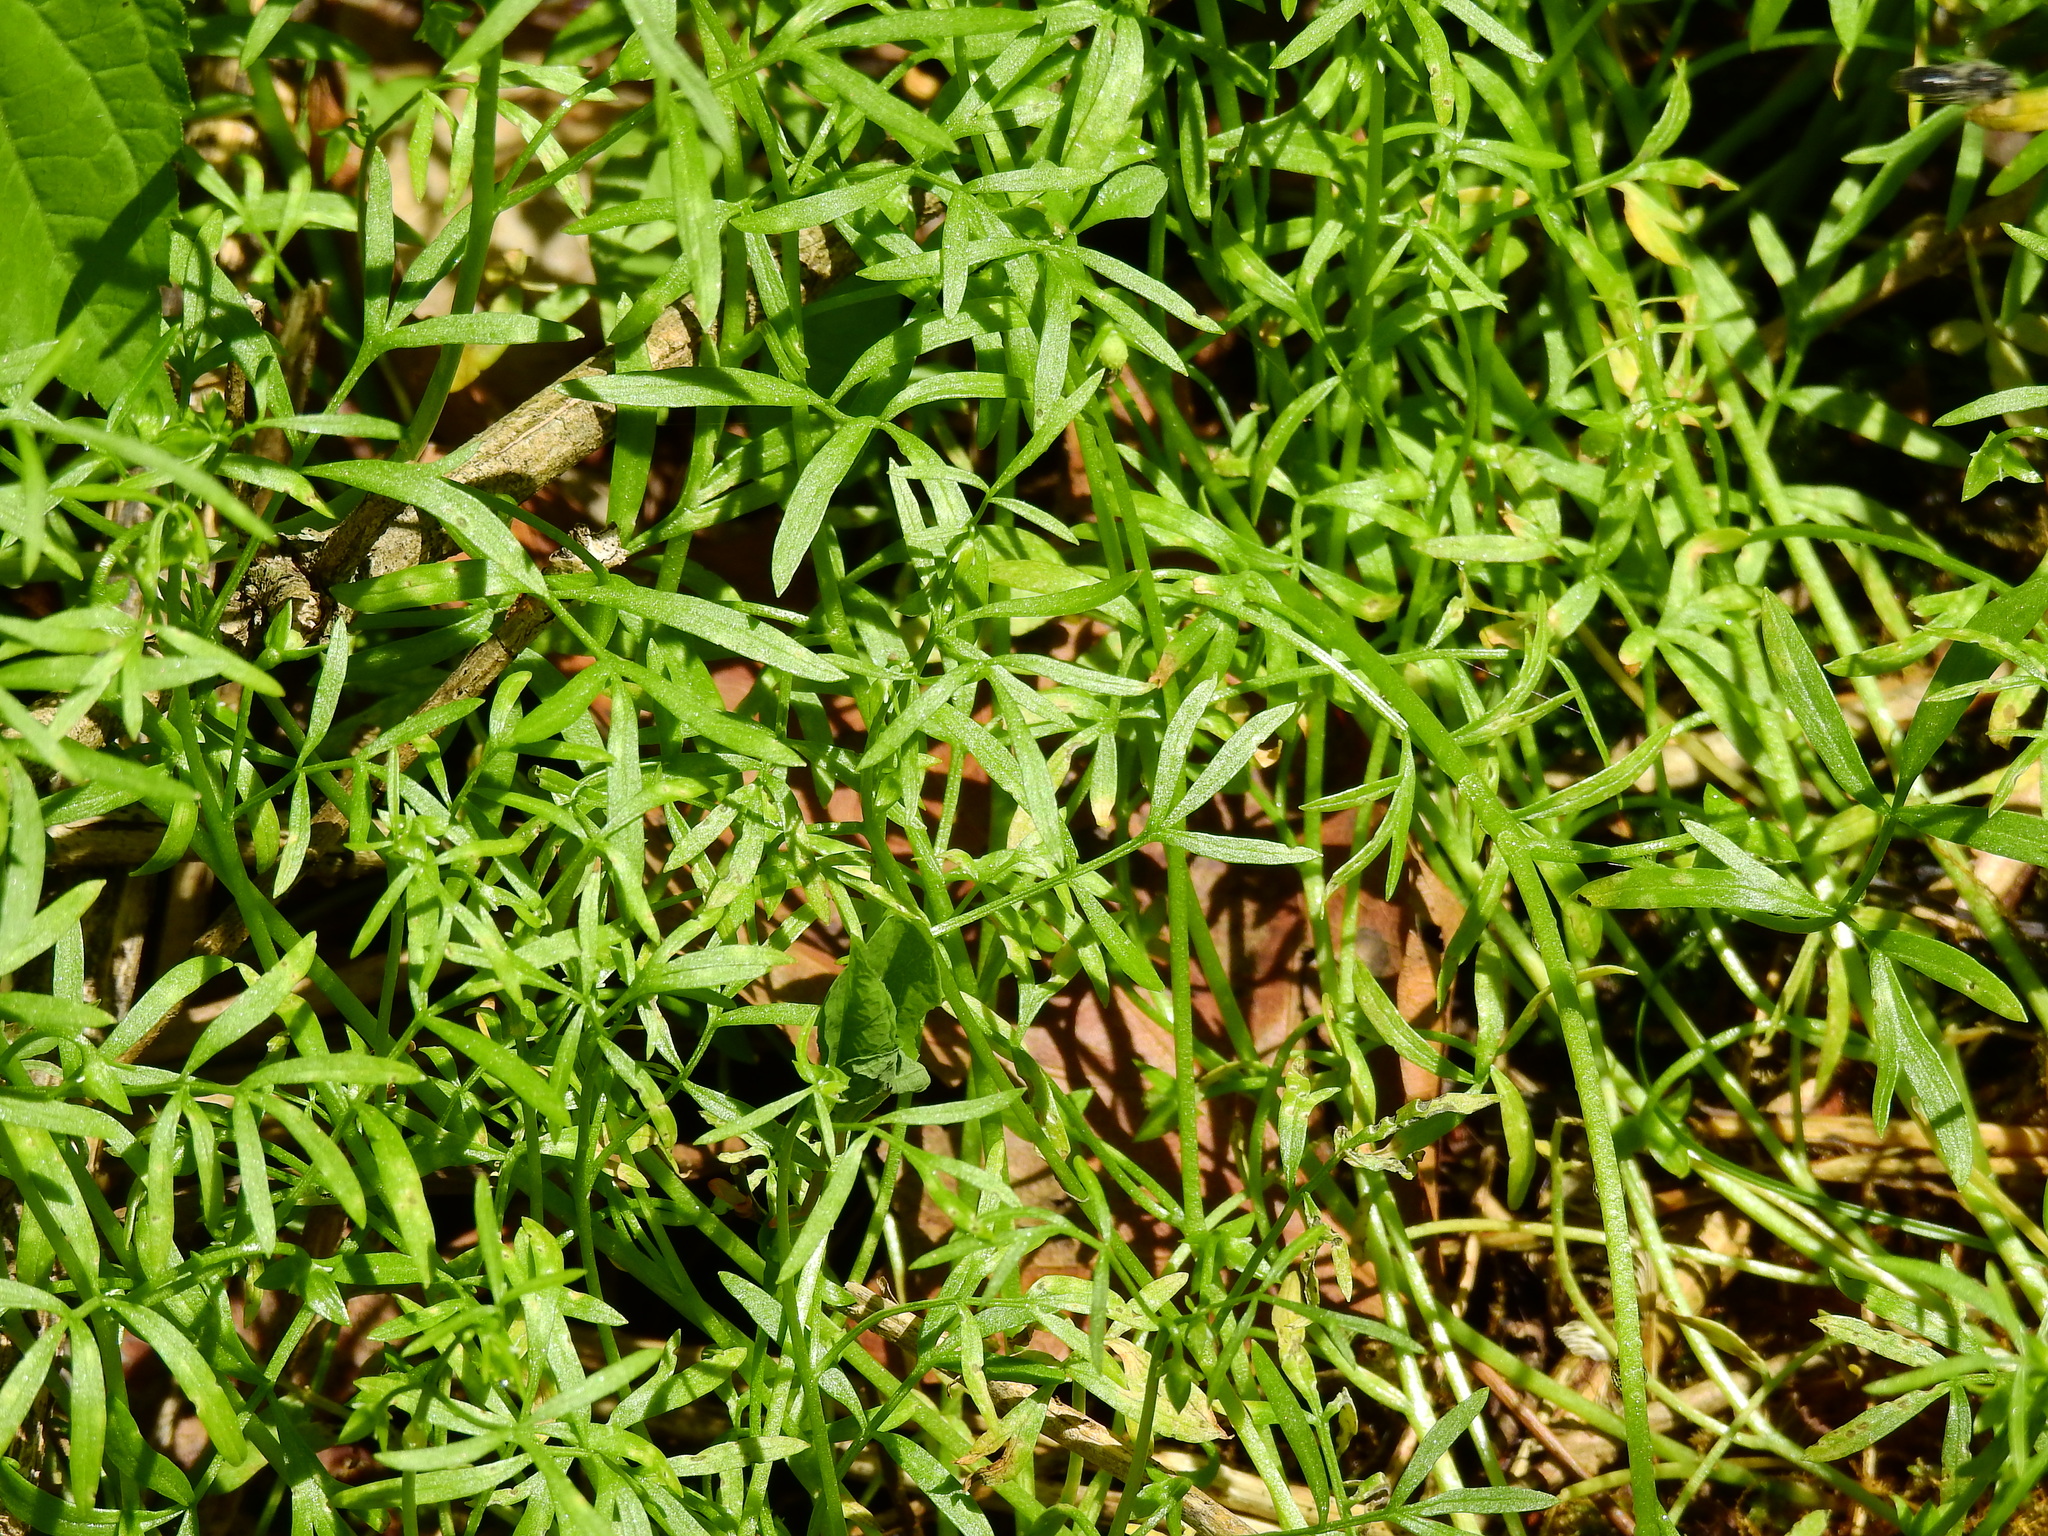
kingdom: Plantae
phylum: Tracheophyta
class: Magnoliopsida
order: Brassicales
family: Limnanthaceae
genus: Floerkea
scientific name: Floerkea proserpinacoides
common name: False mermaid
